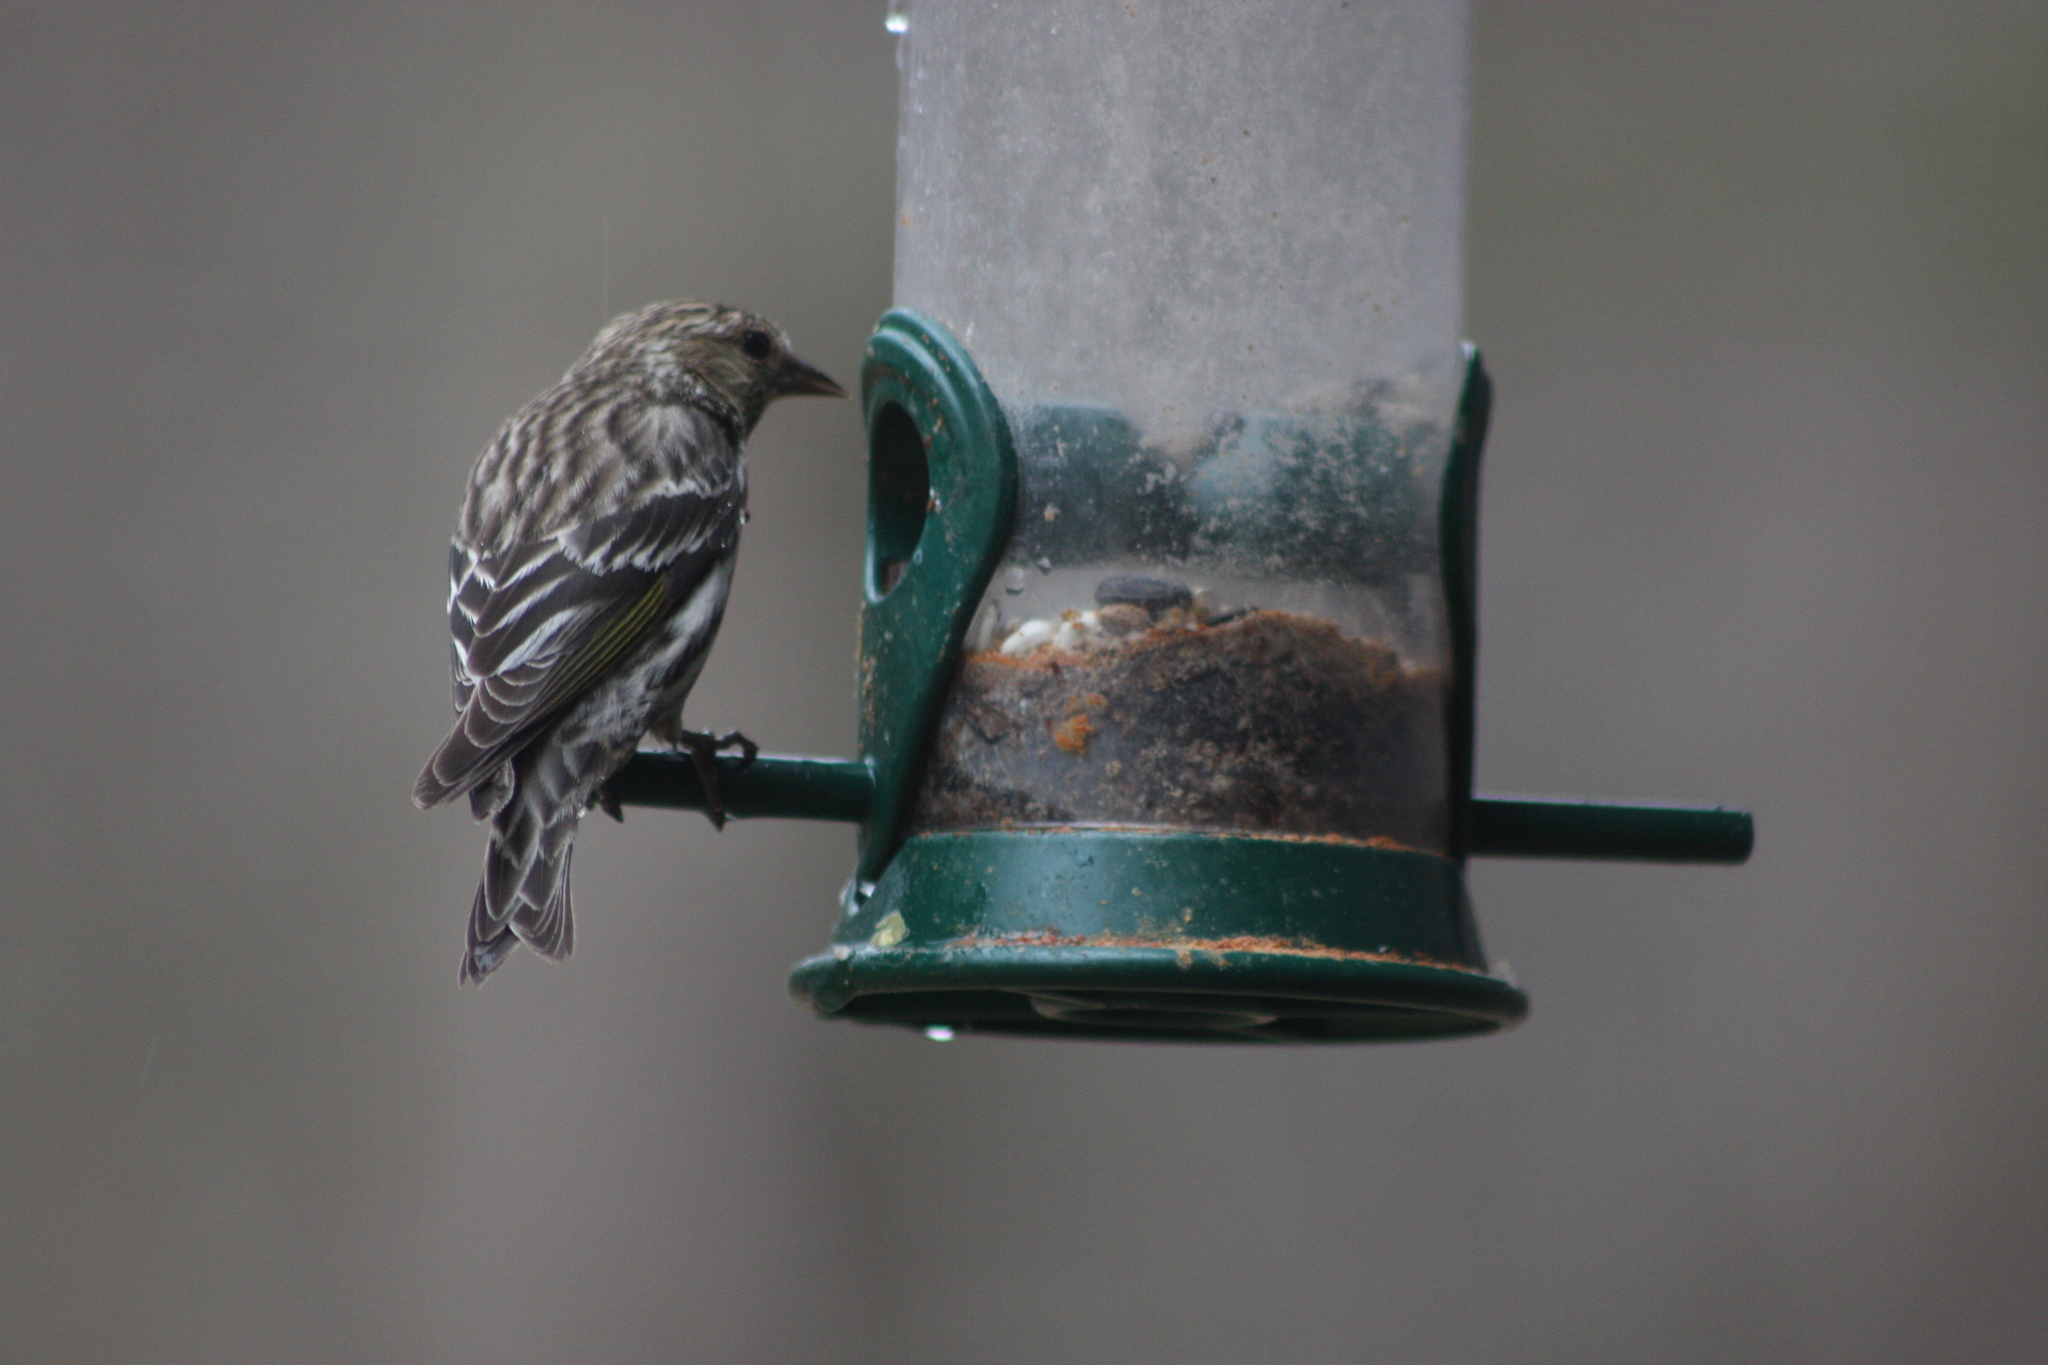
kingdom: Animalia
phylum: Chordata
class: Aves
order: Passeriformes
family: Fringillidae
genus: Spinus
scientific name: Spinus pinus
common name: Pine siskin
